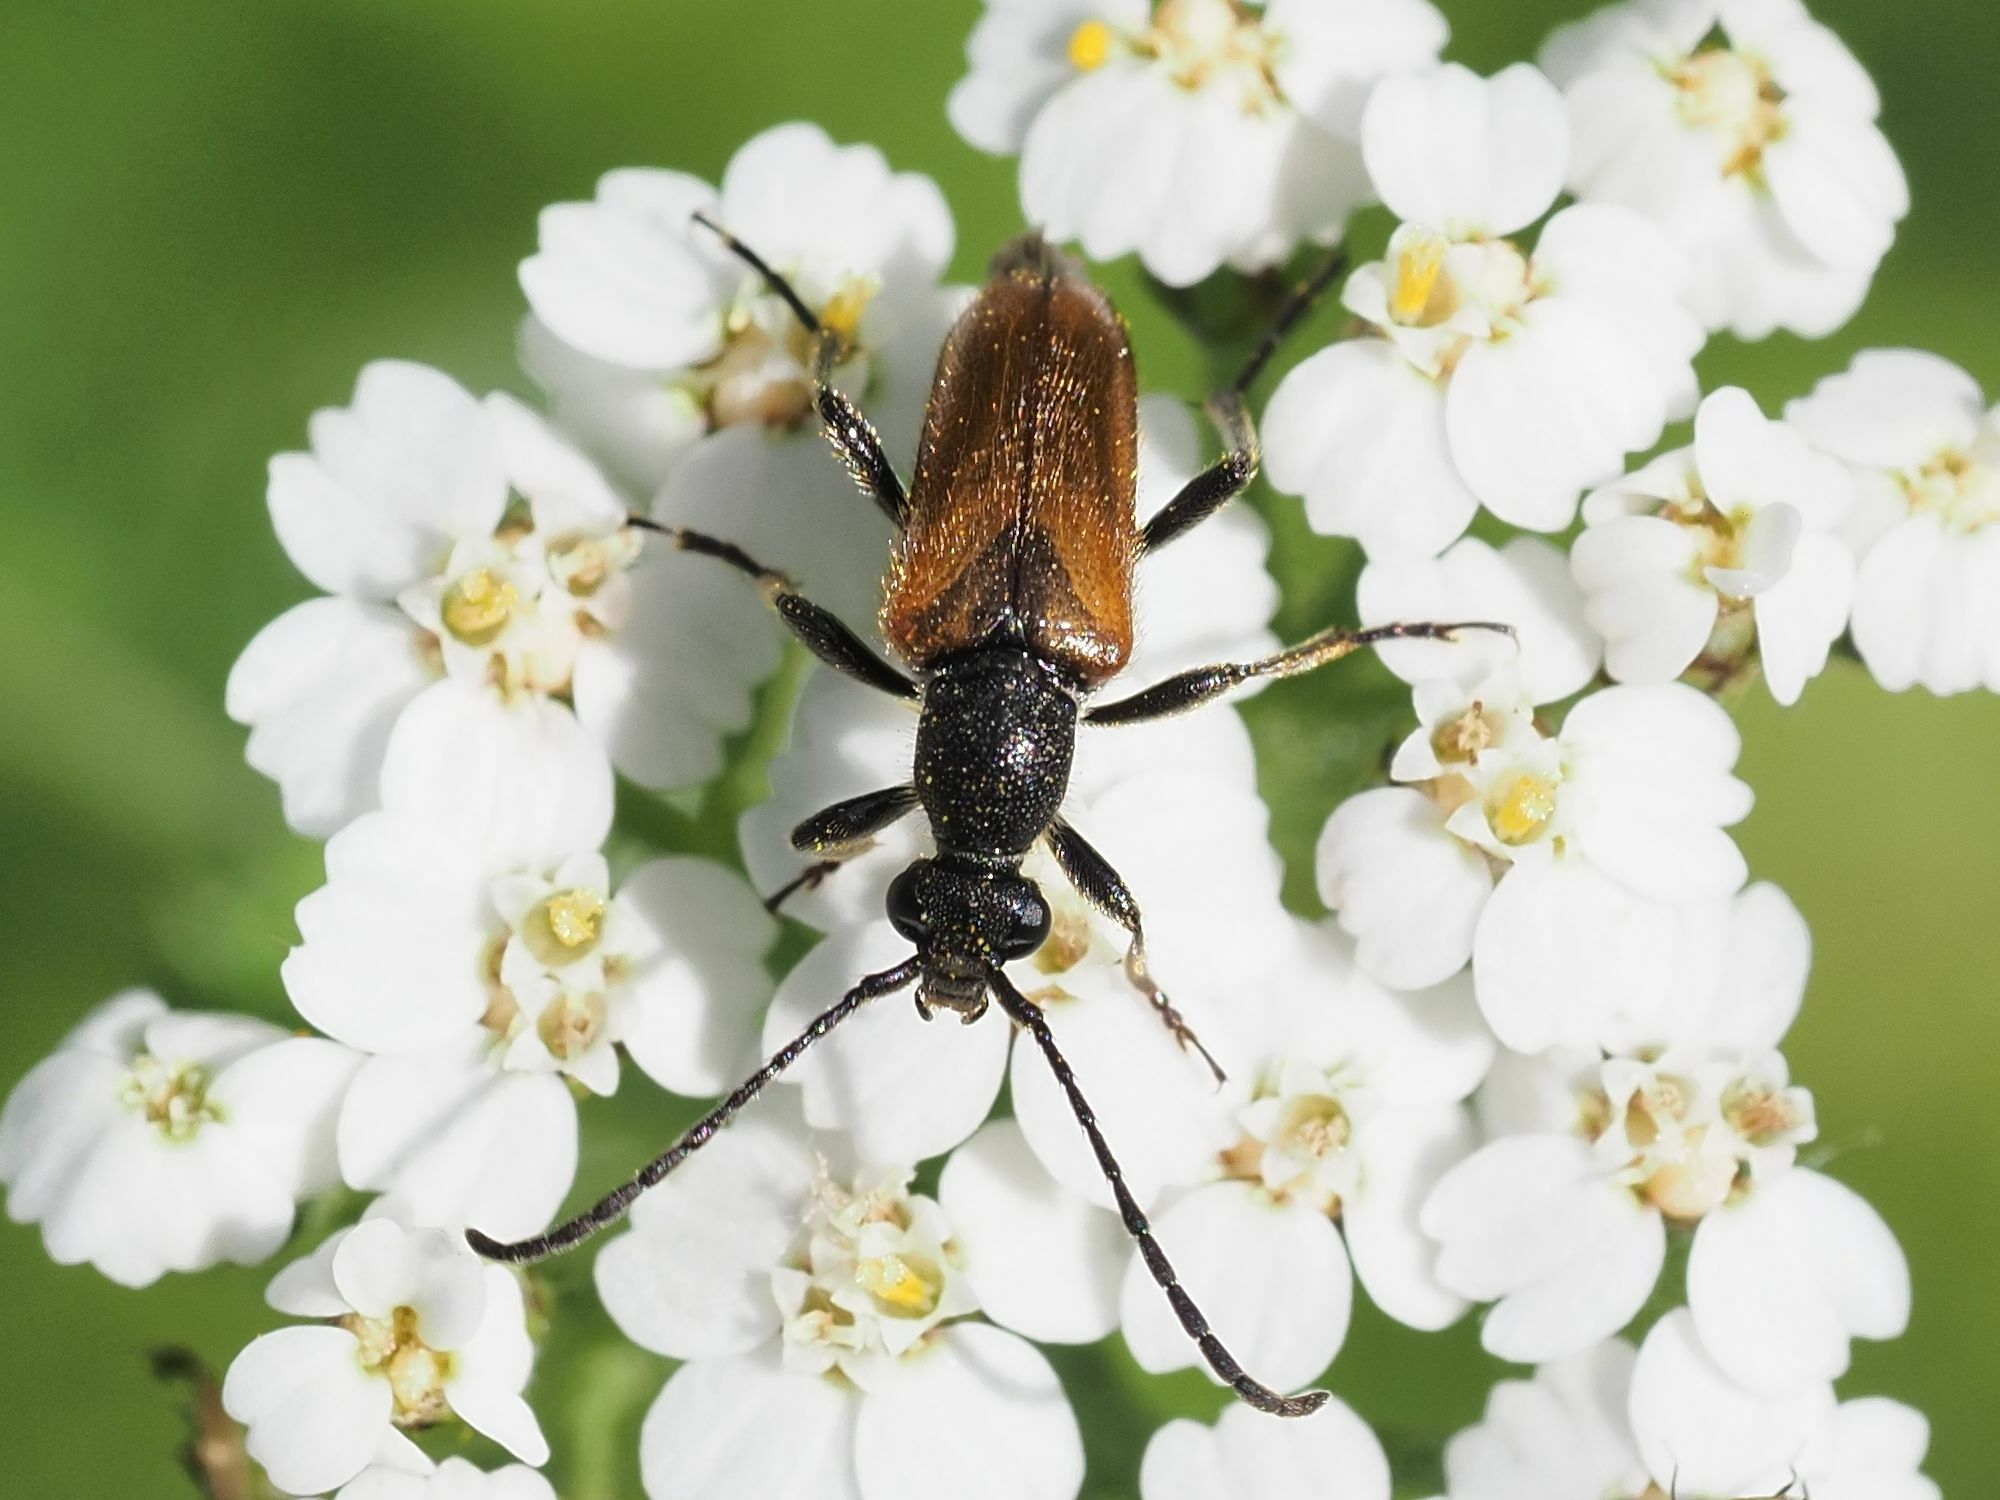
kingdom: Animalia
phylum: Arthropoda
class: Insecta
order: Coleoptera
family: Cerambycidae
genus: Pseudovadonia
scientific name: Pseudovadonia livida
